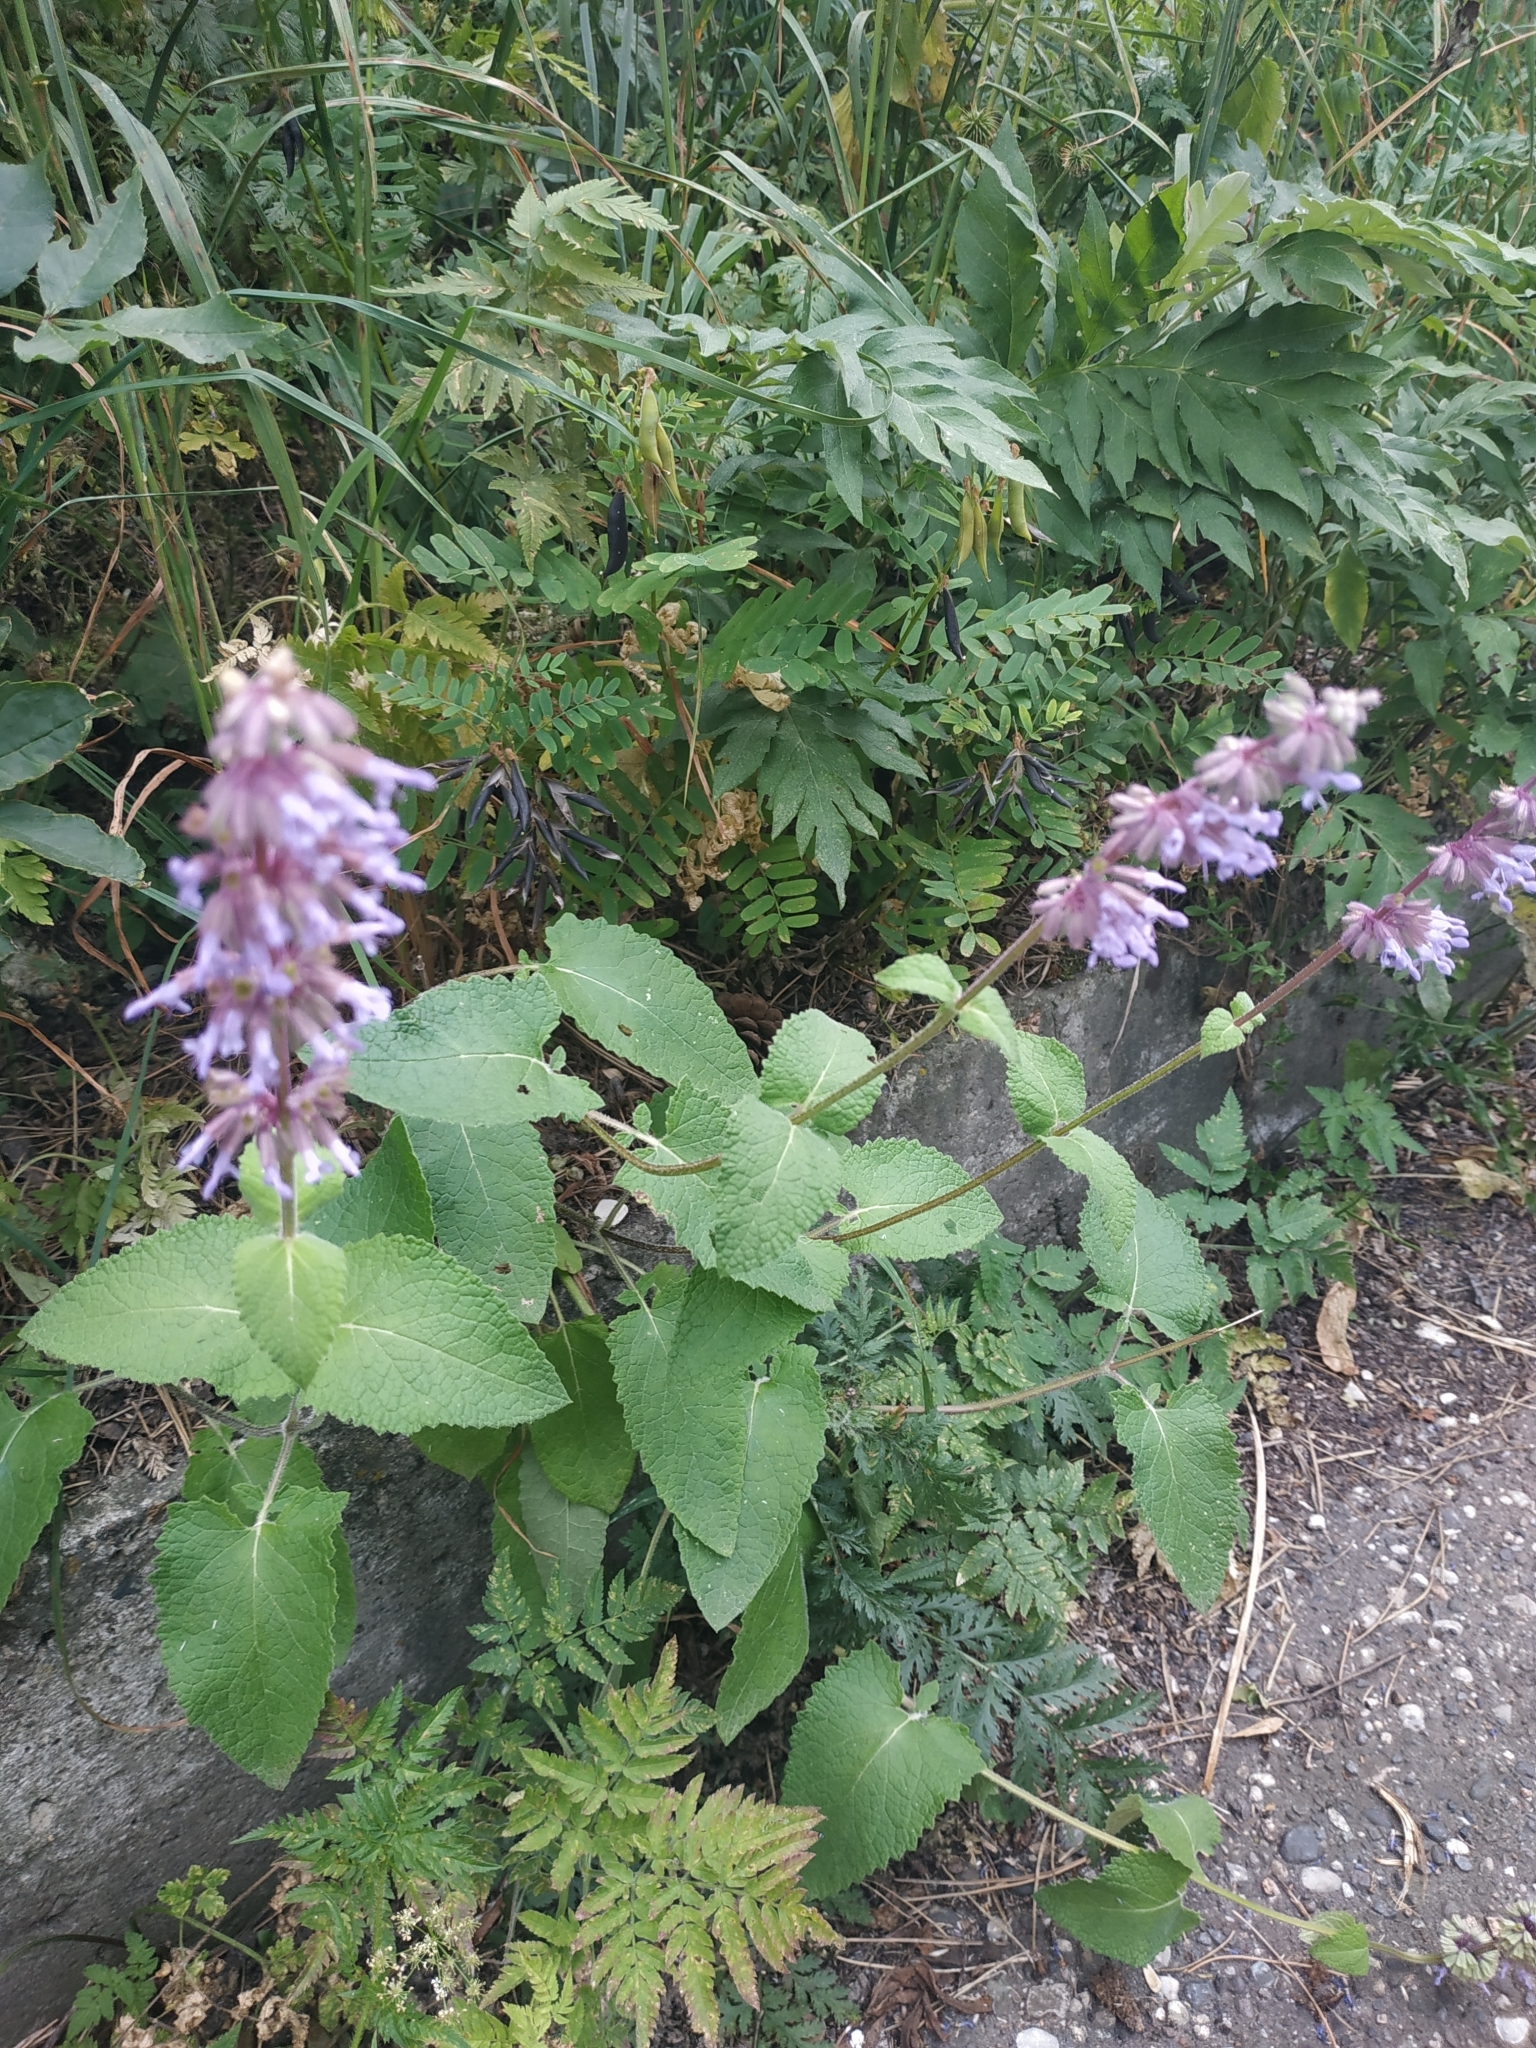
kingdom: Plantae
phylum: Tracheophyta
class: Magnoliopsida
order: Lamiales
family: Lamiaceae
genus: Salvia
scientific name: Salvia verticillata
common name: Whorled clary
